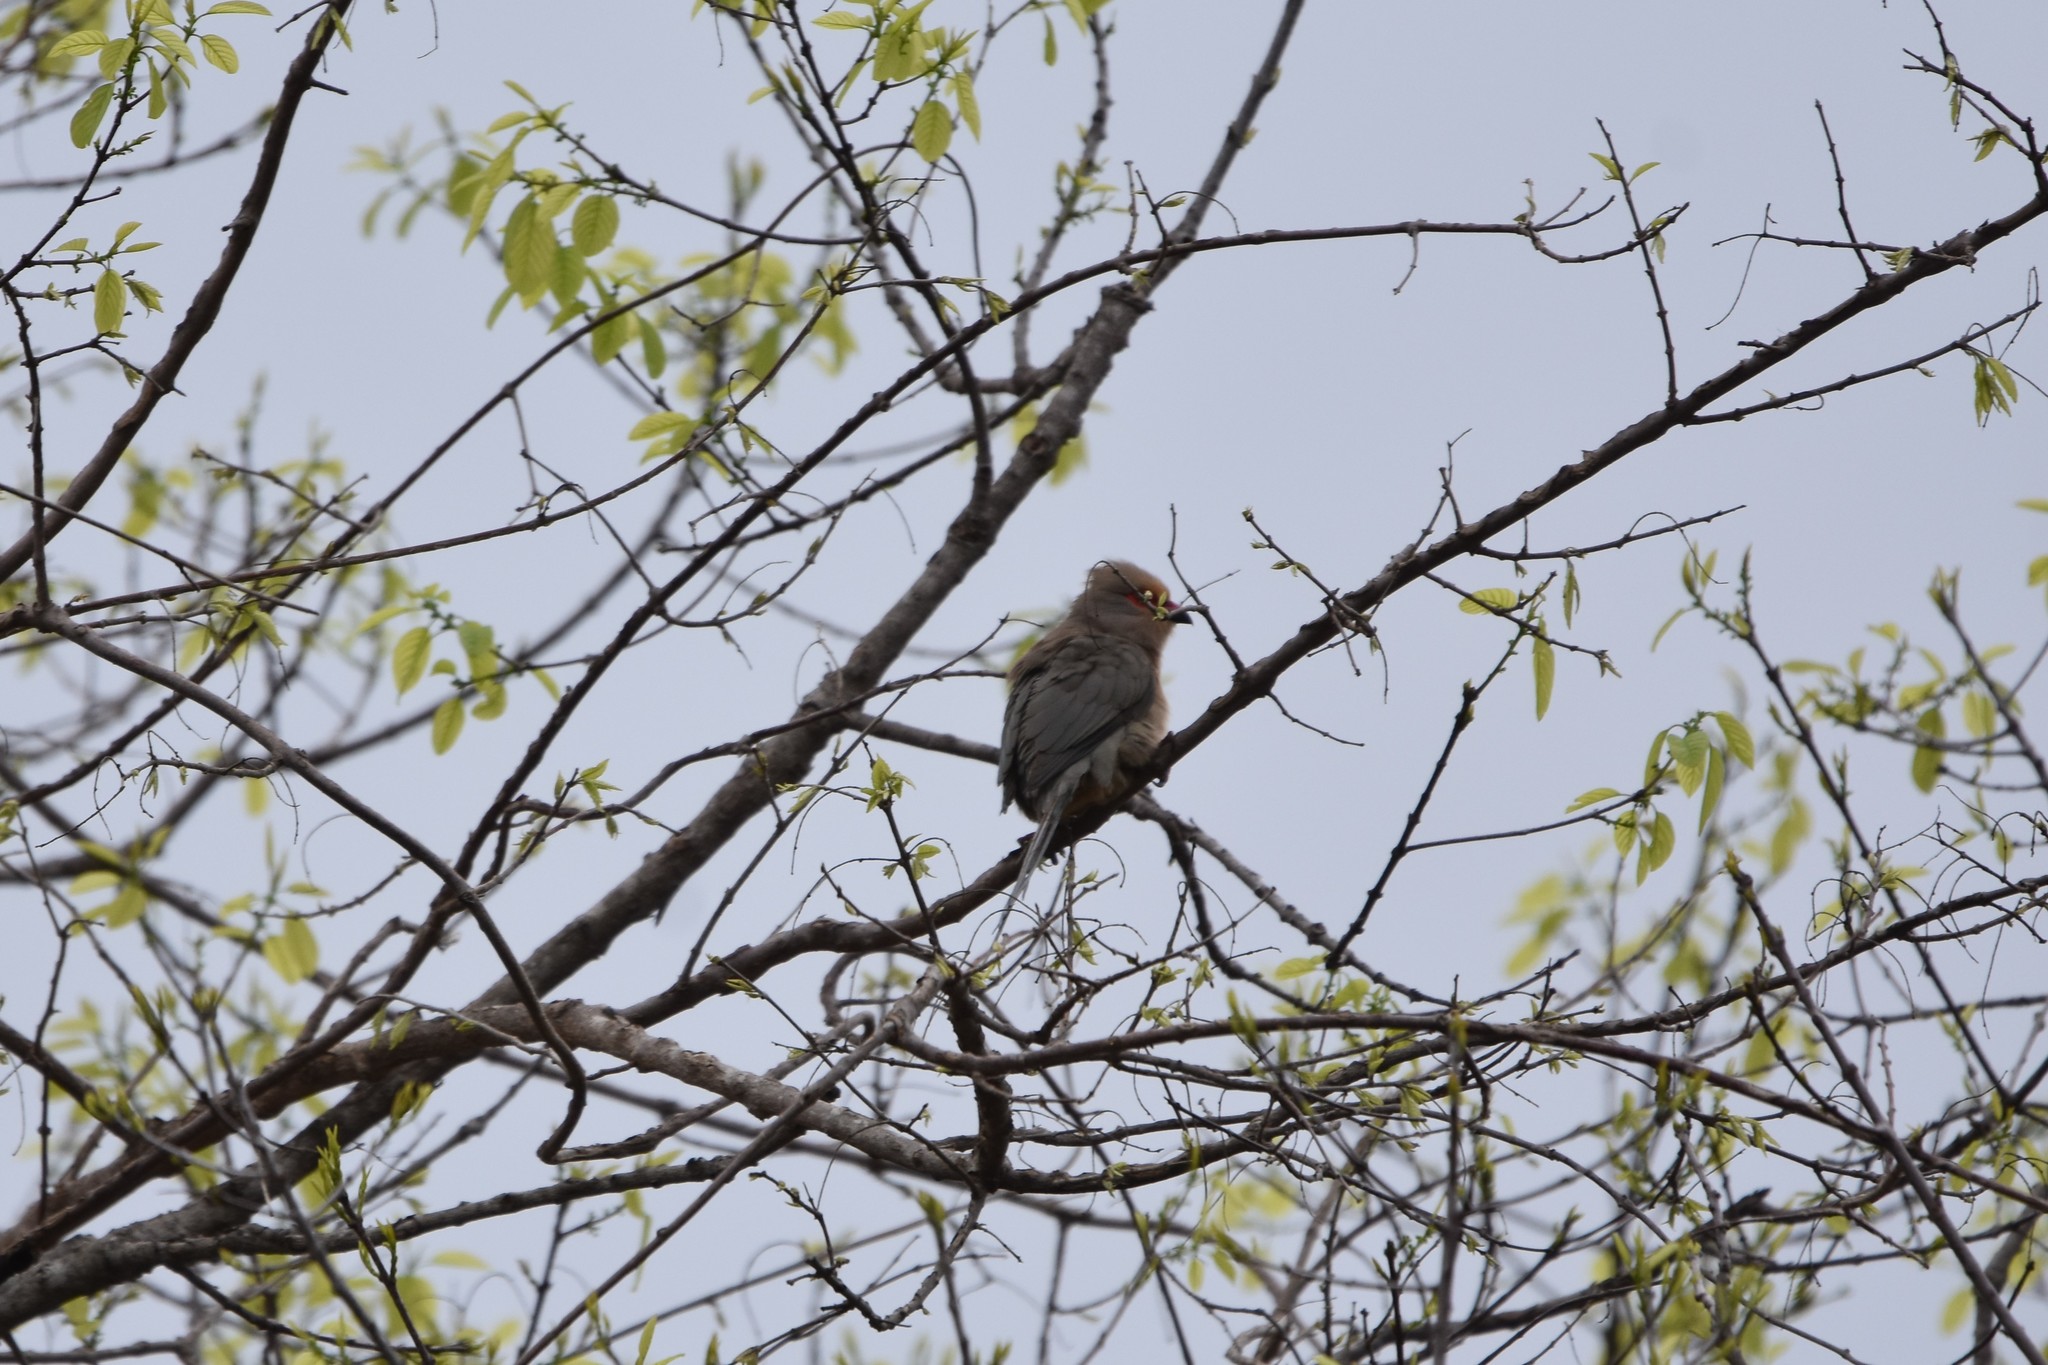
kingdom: Animalia
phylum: Chordata
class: Aves
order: Coliiformes
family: Coliidae
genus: Urocolius
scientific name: Urocolius indicus
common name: Red-faced mousebird
